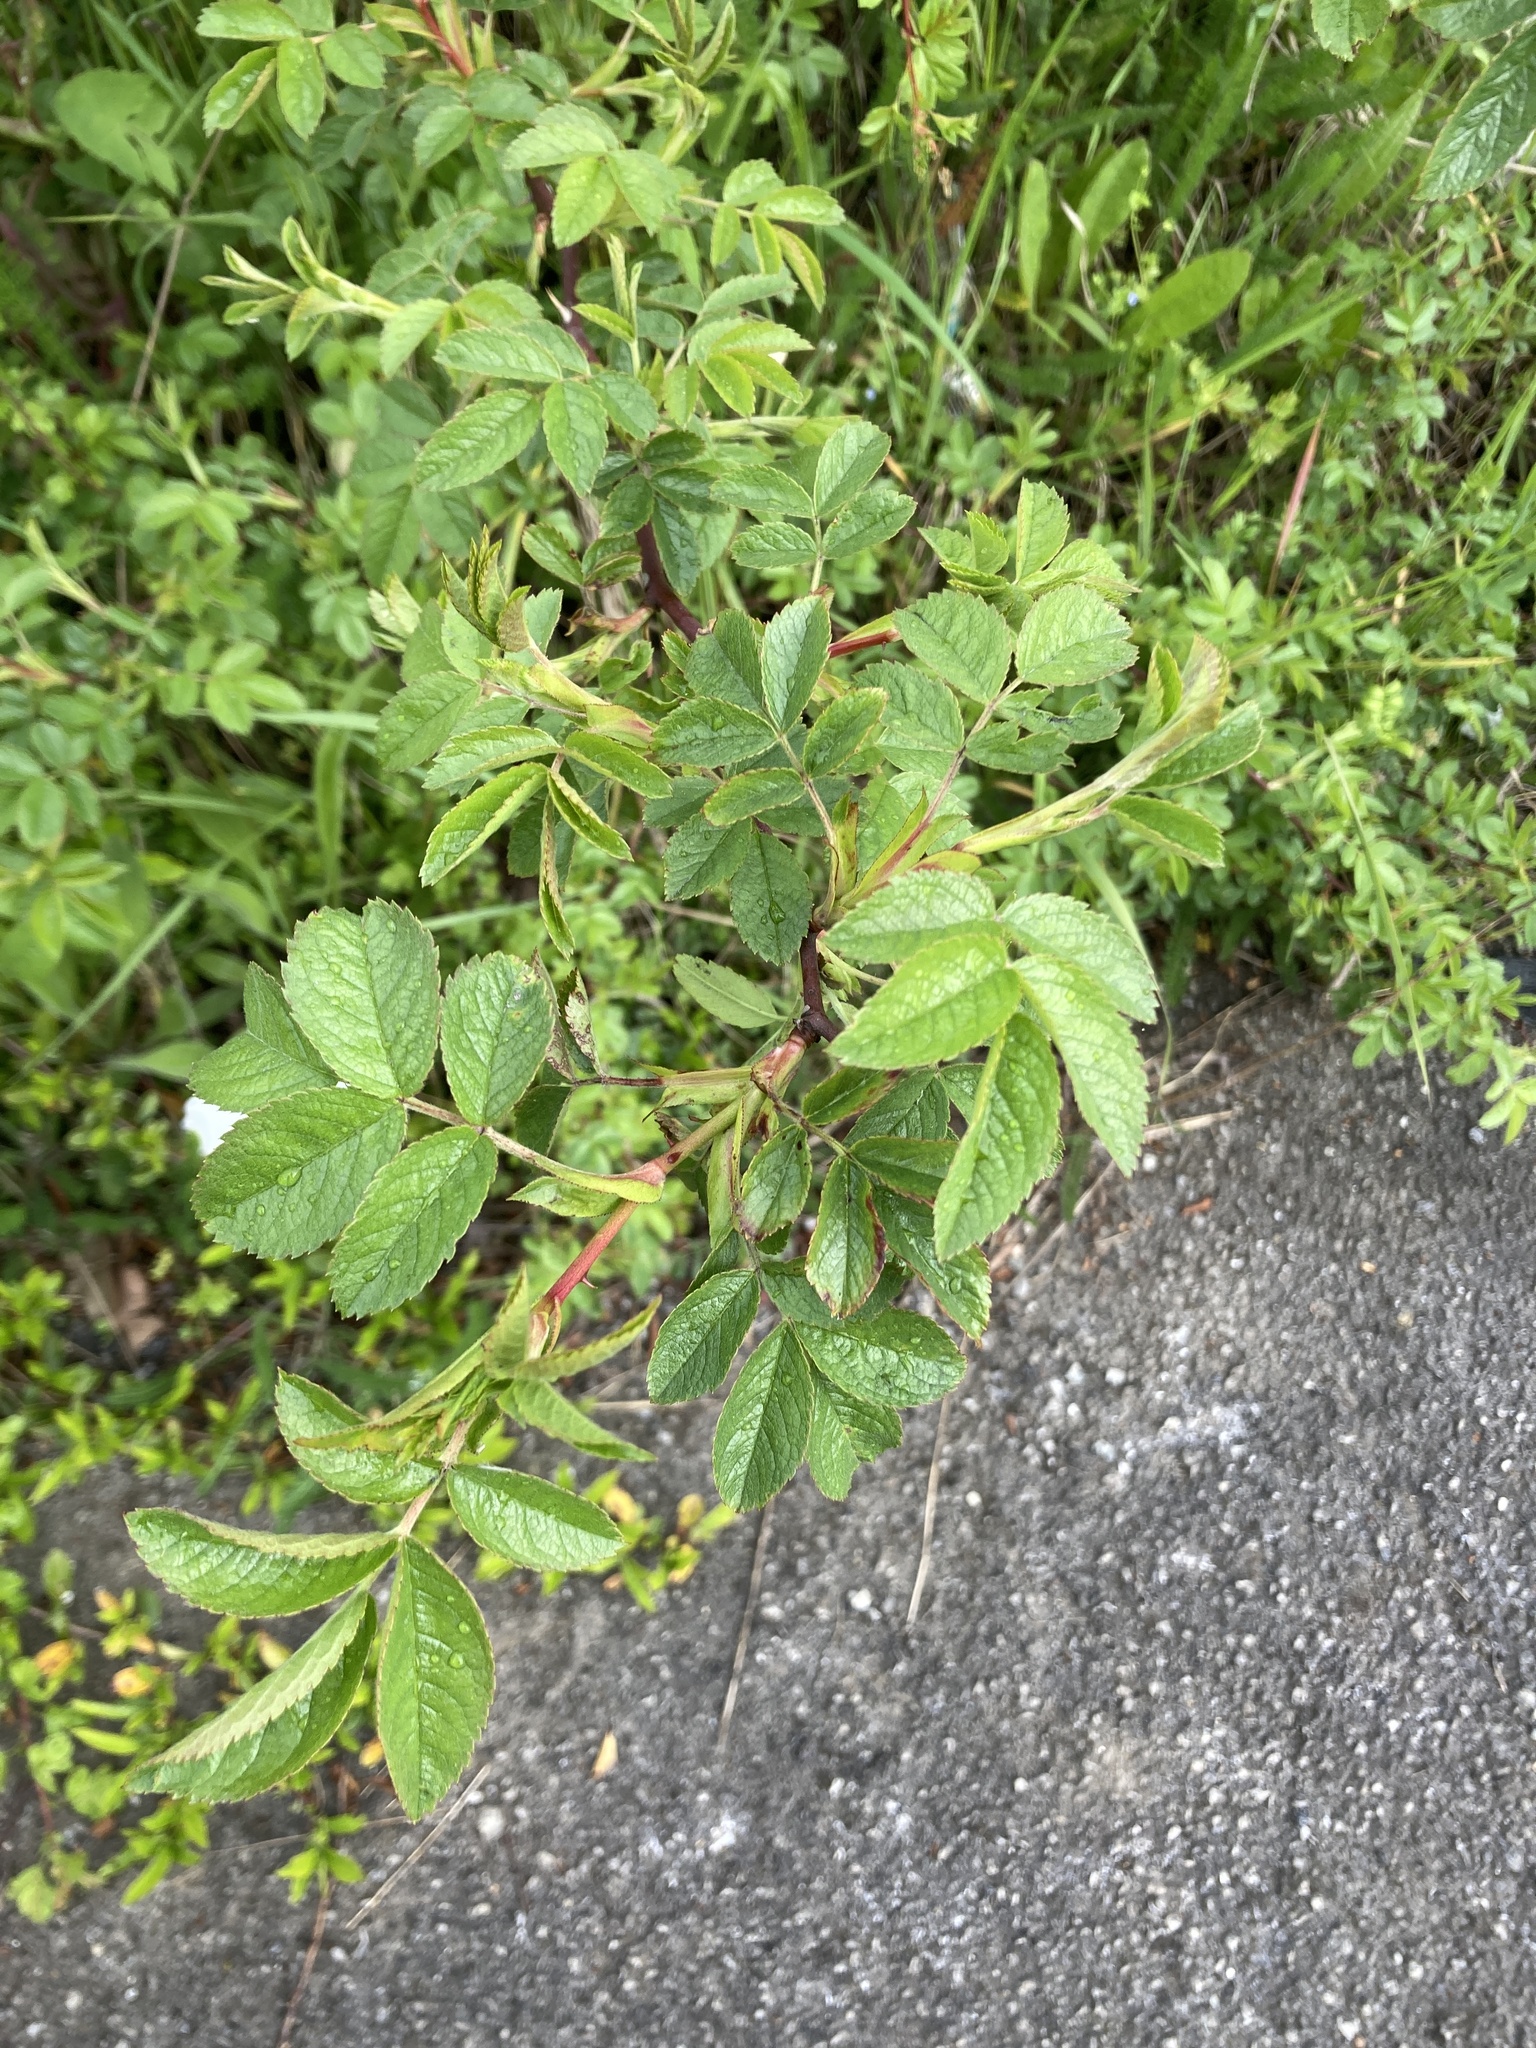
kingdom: Plantae
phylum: Tracheophyta
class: Magnoliopsida
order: Rosales
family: Rosaceae
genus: Rosa
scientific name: Rosa canina
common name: Dog rose
